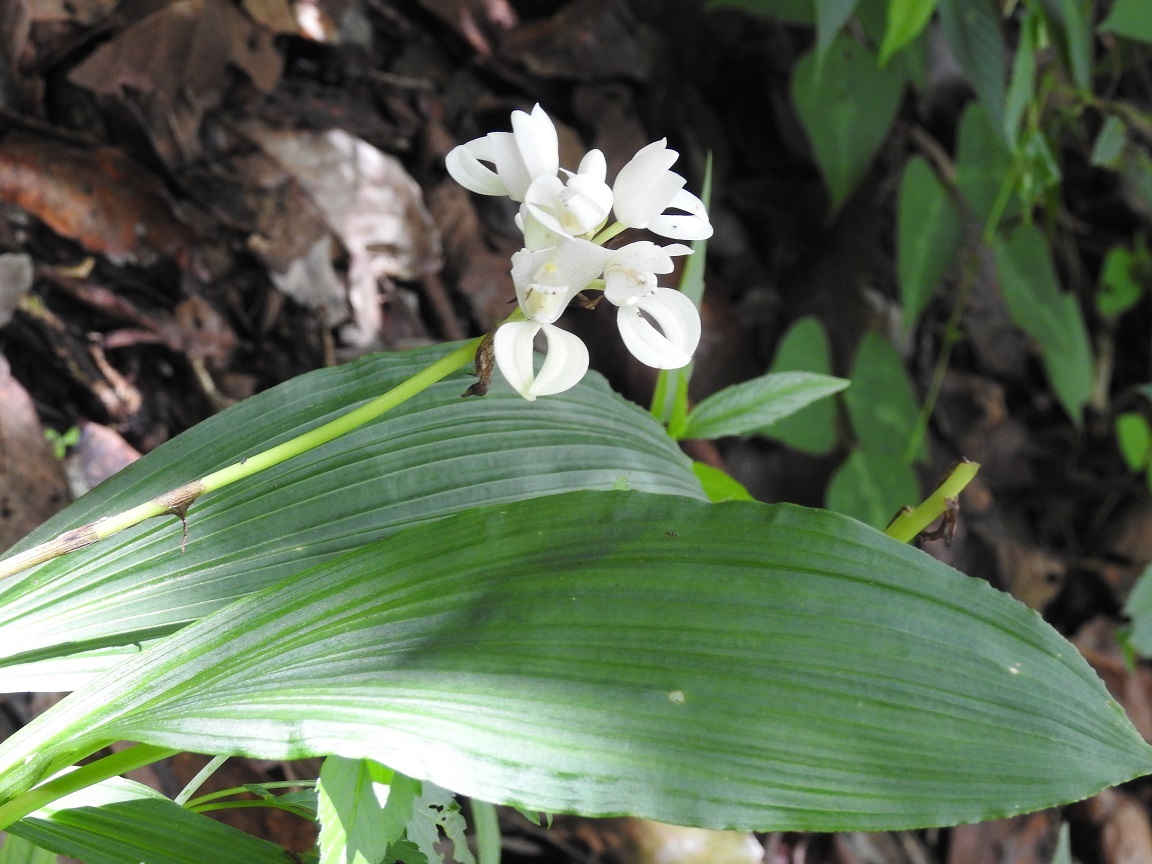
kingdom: Plantae
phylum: Tracheophyta
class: Liliopsida
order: Asparagales
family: Orchidaceae
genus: Govenia
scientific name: Govenia liliacea
